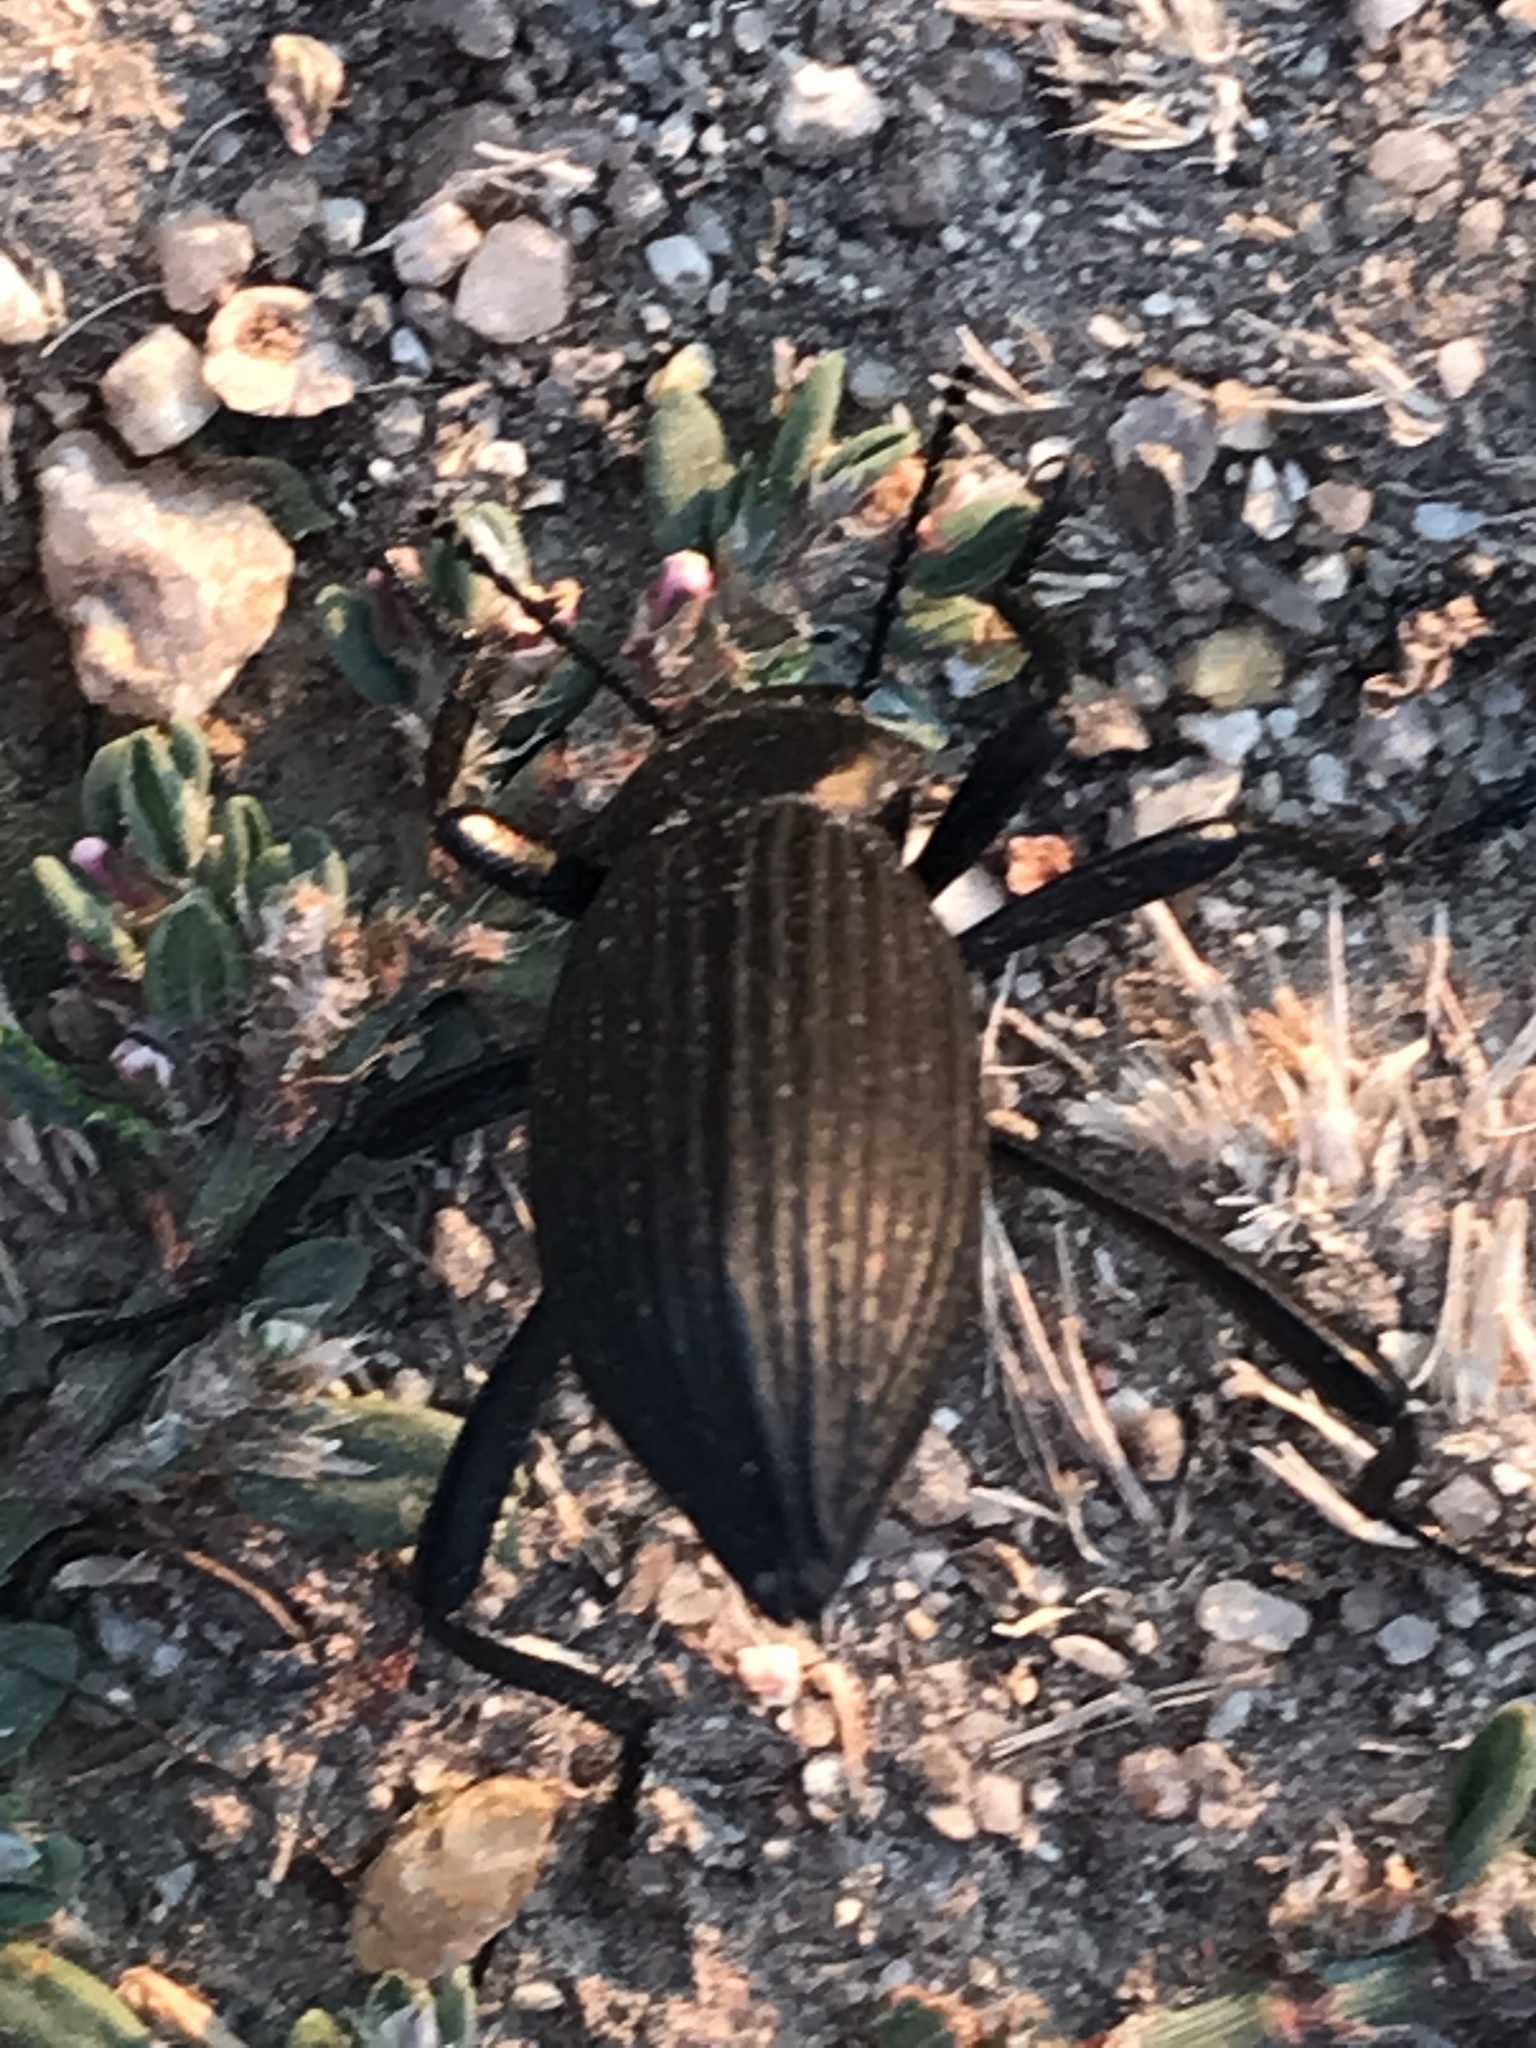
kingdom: Animalia
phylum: Arthropoda
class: Insecta
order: Coleoptera
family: Tenebrionidae
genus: Eleodes
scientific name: Eleodes hispilabris
